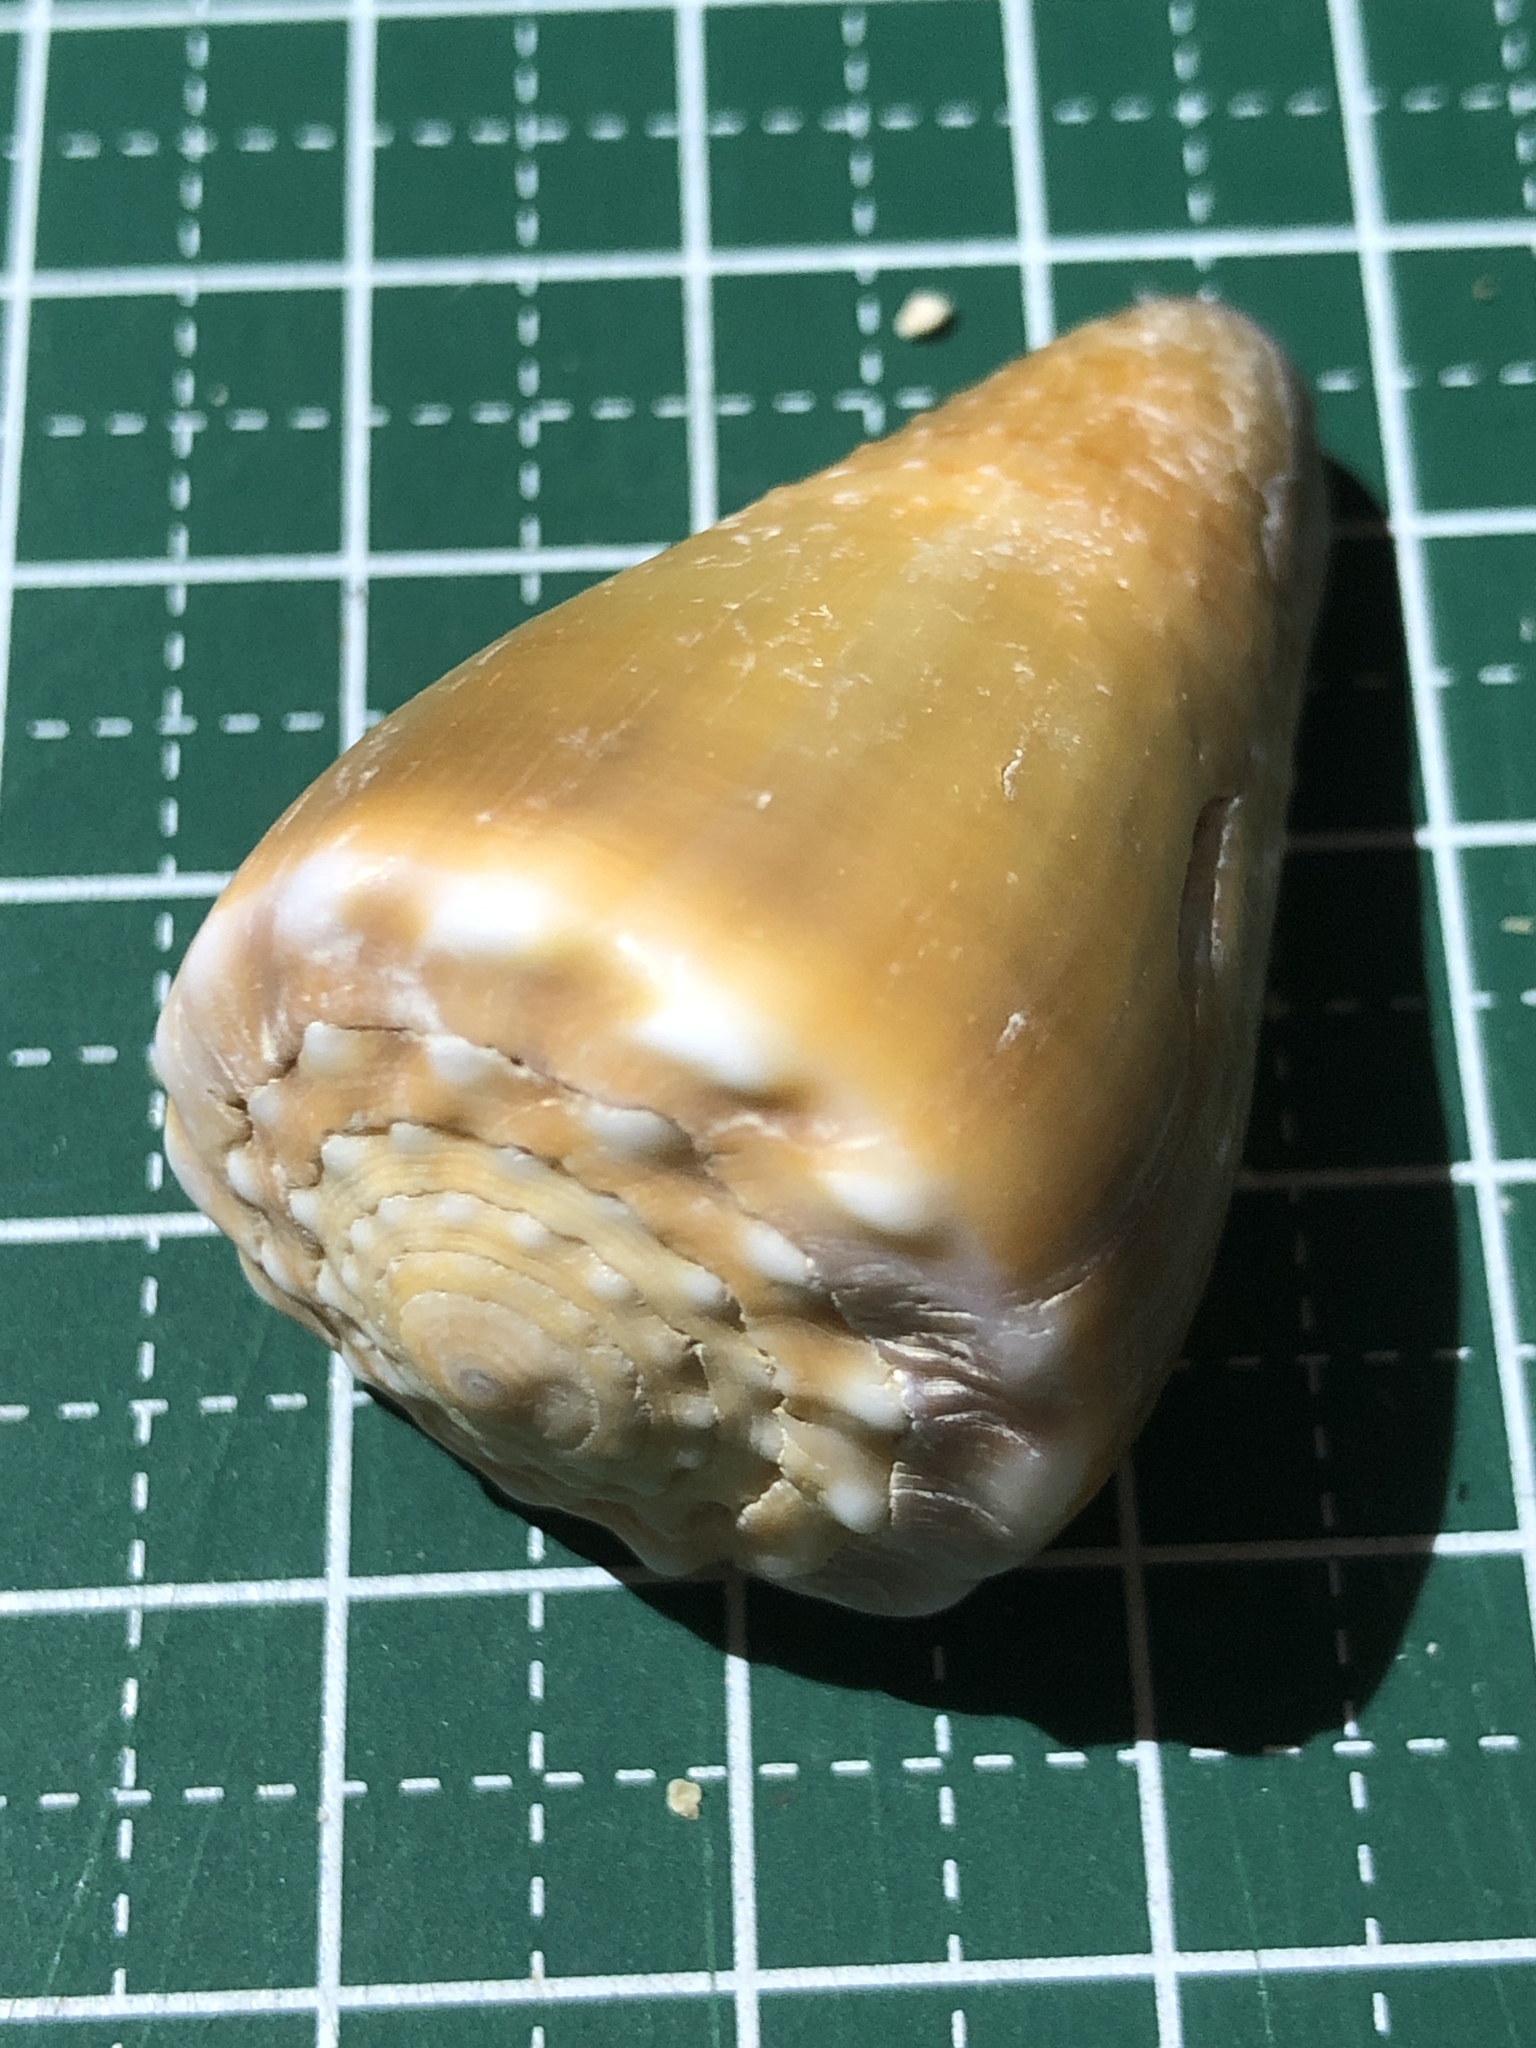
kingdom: Animalia
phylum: Mollusca
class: Gastropoda
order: Neogastropoda
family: Conidae
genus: Conus
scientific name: Conus sanguinolentus
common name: Blood-stained cone
